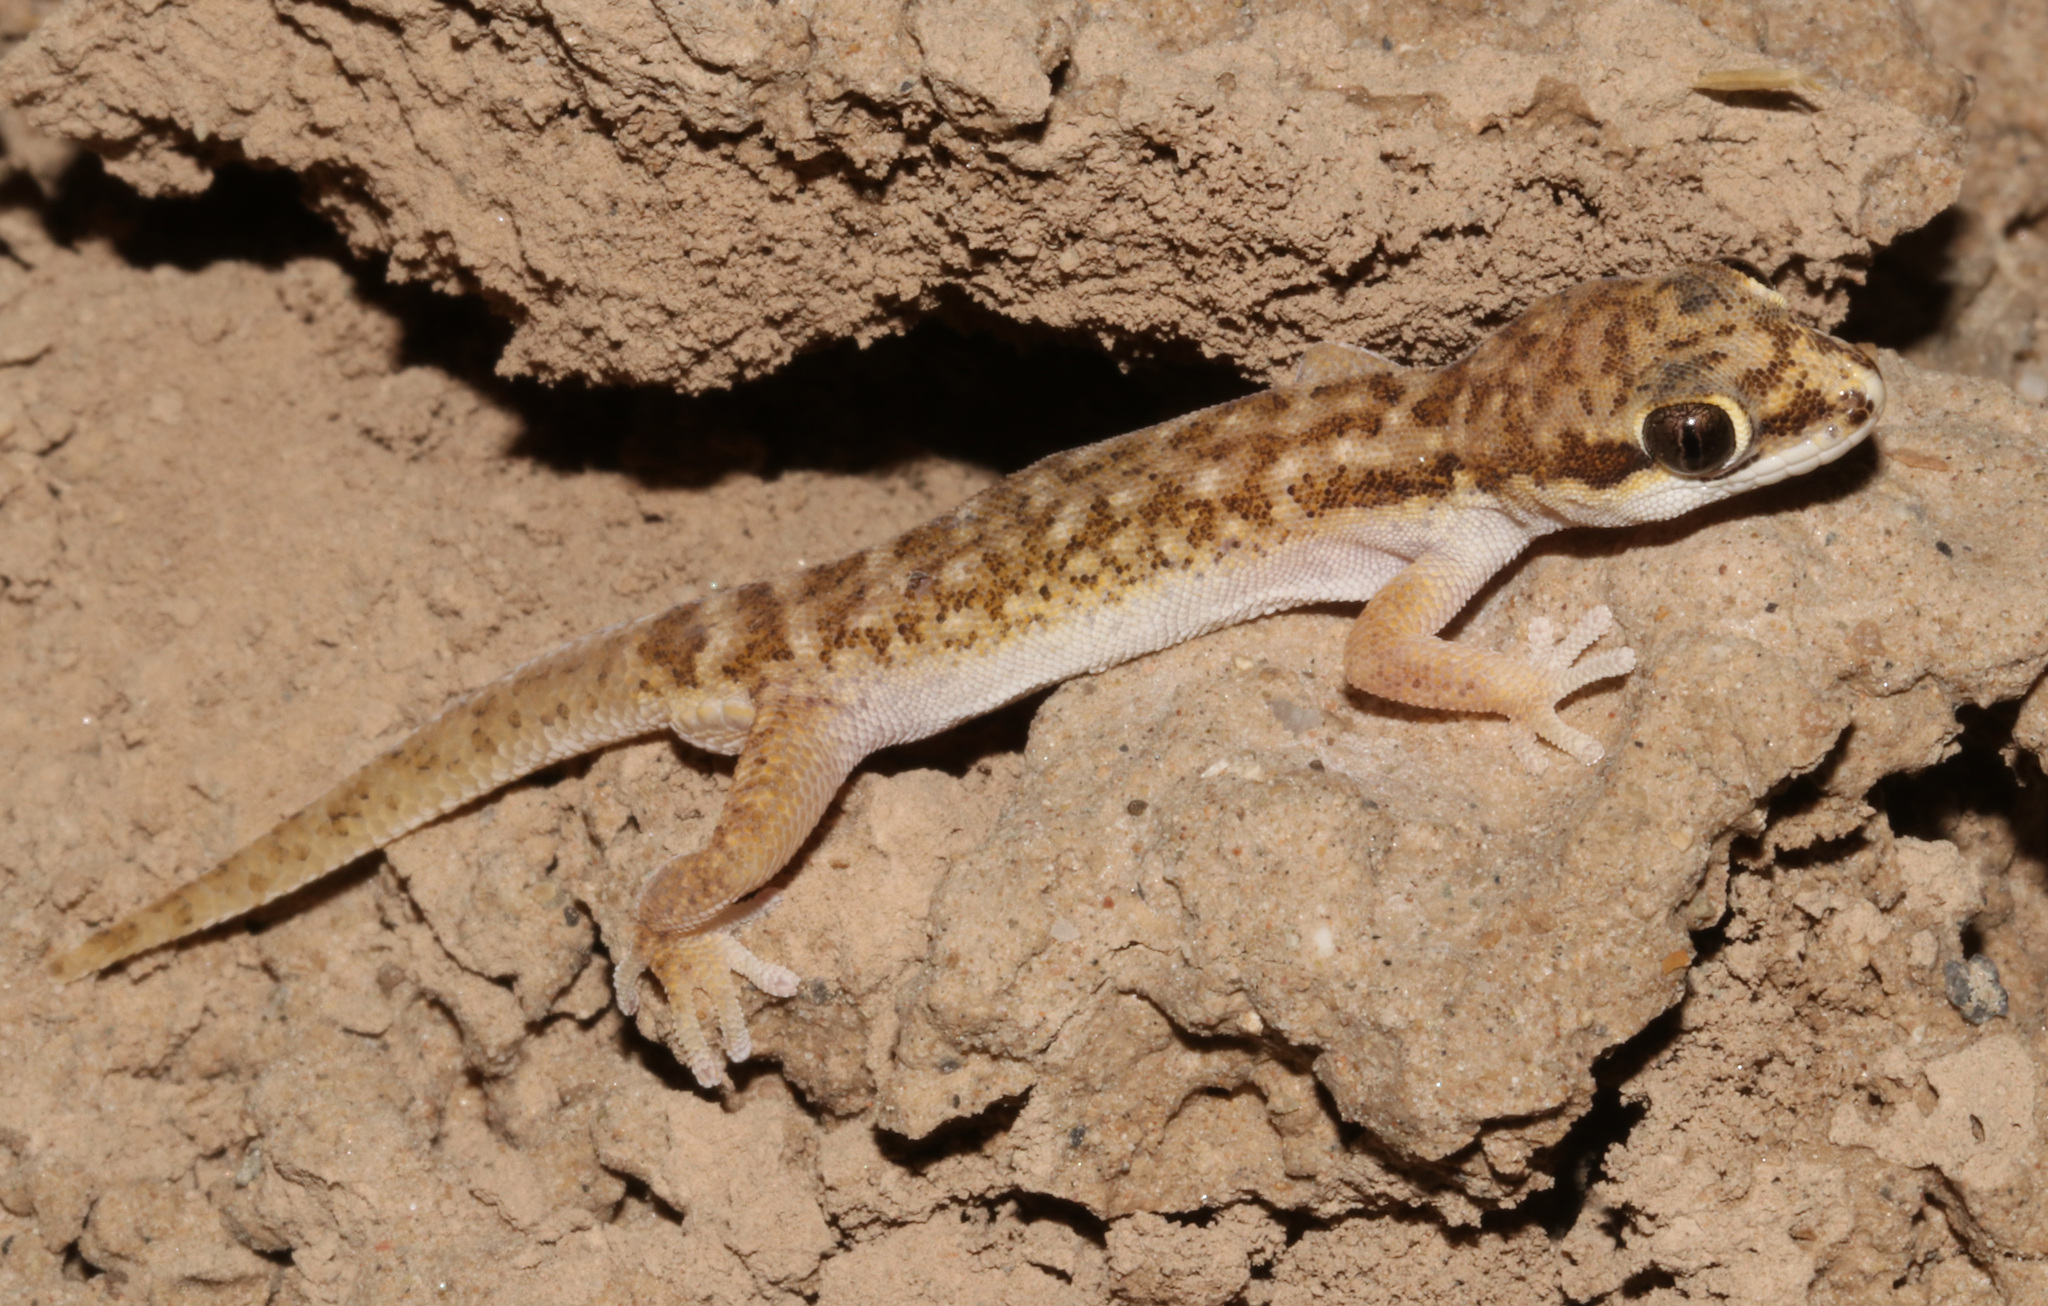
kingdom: Animalia
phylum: Chordata
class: Squamata
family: Gekkonidae
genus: Pachydactylus
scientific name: Pachydactylus punctatus
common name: Pointed thick-toed gecko
